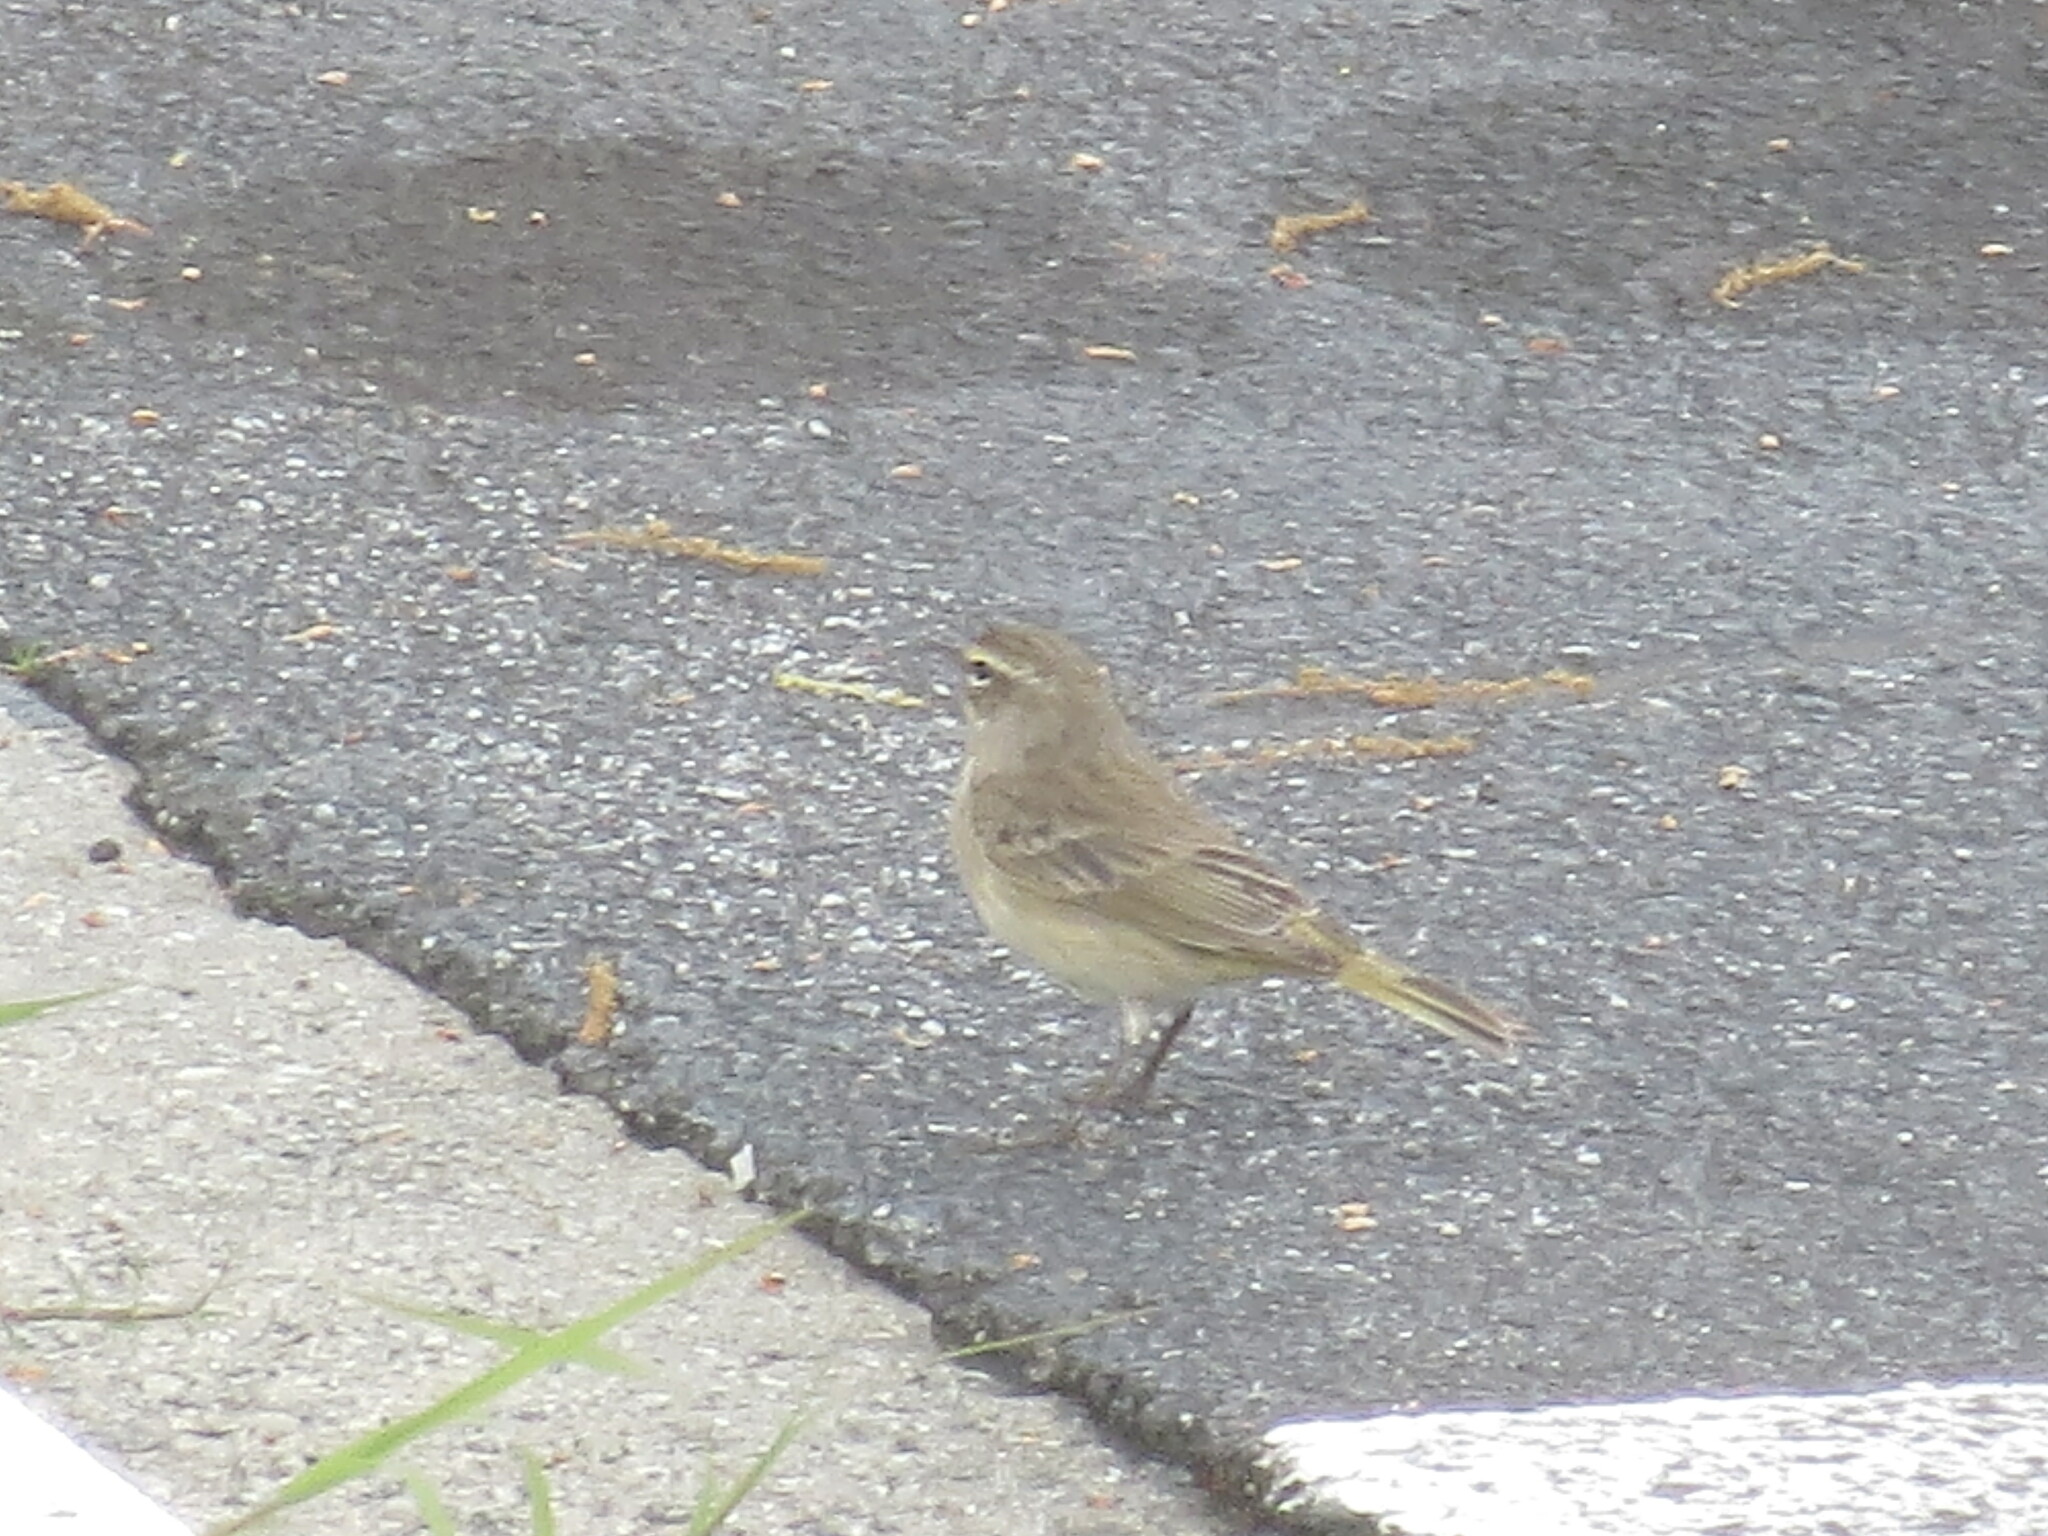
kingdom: Animalia
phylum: Chordata
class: Aves
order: Passeriformes
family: Parulidae
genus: Setophaga
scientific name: Setophaga palmarum
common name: Palm warbler
